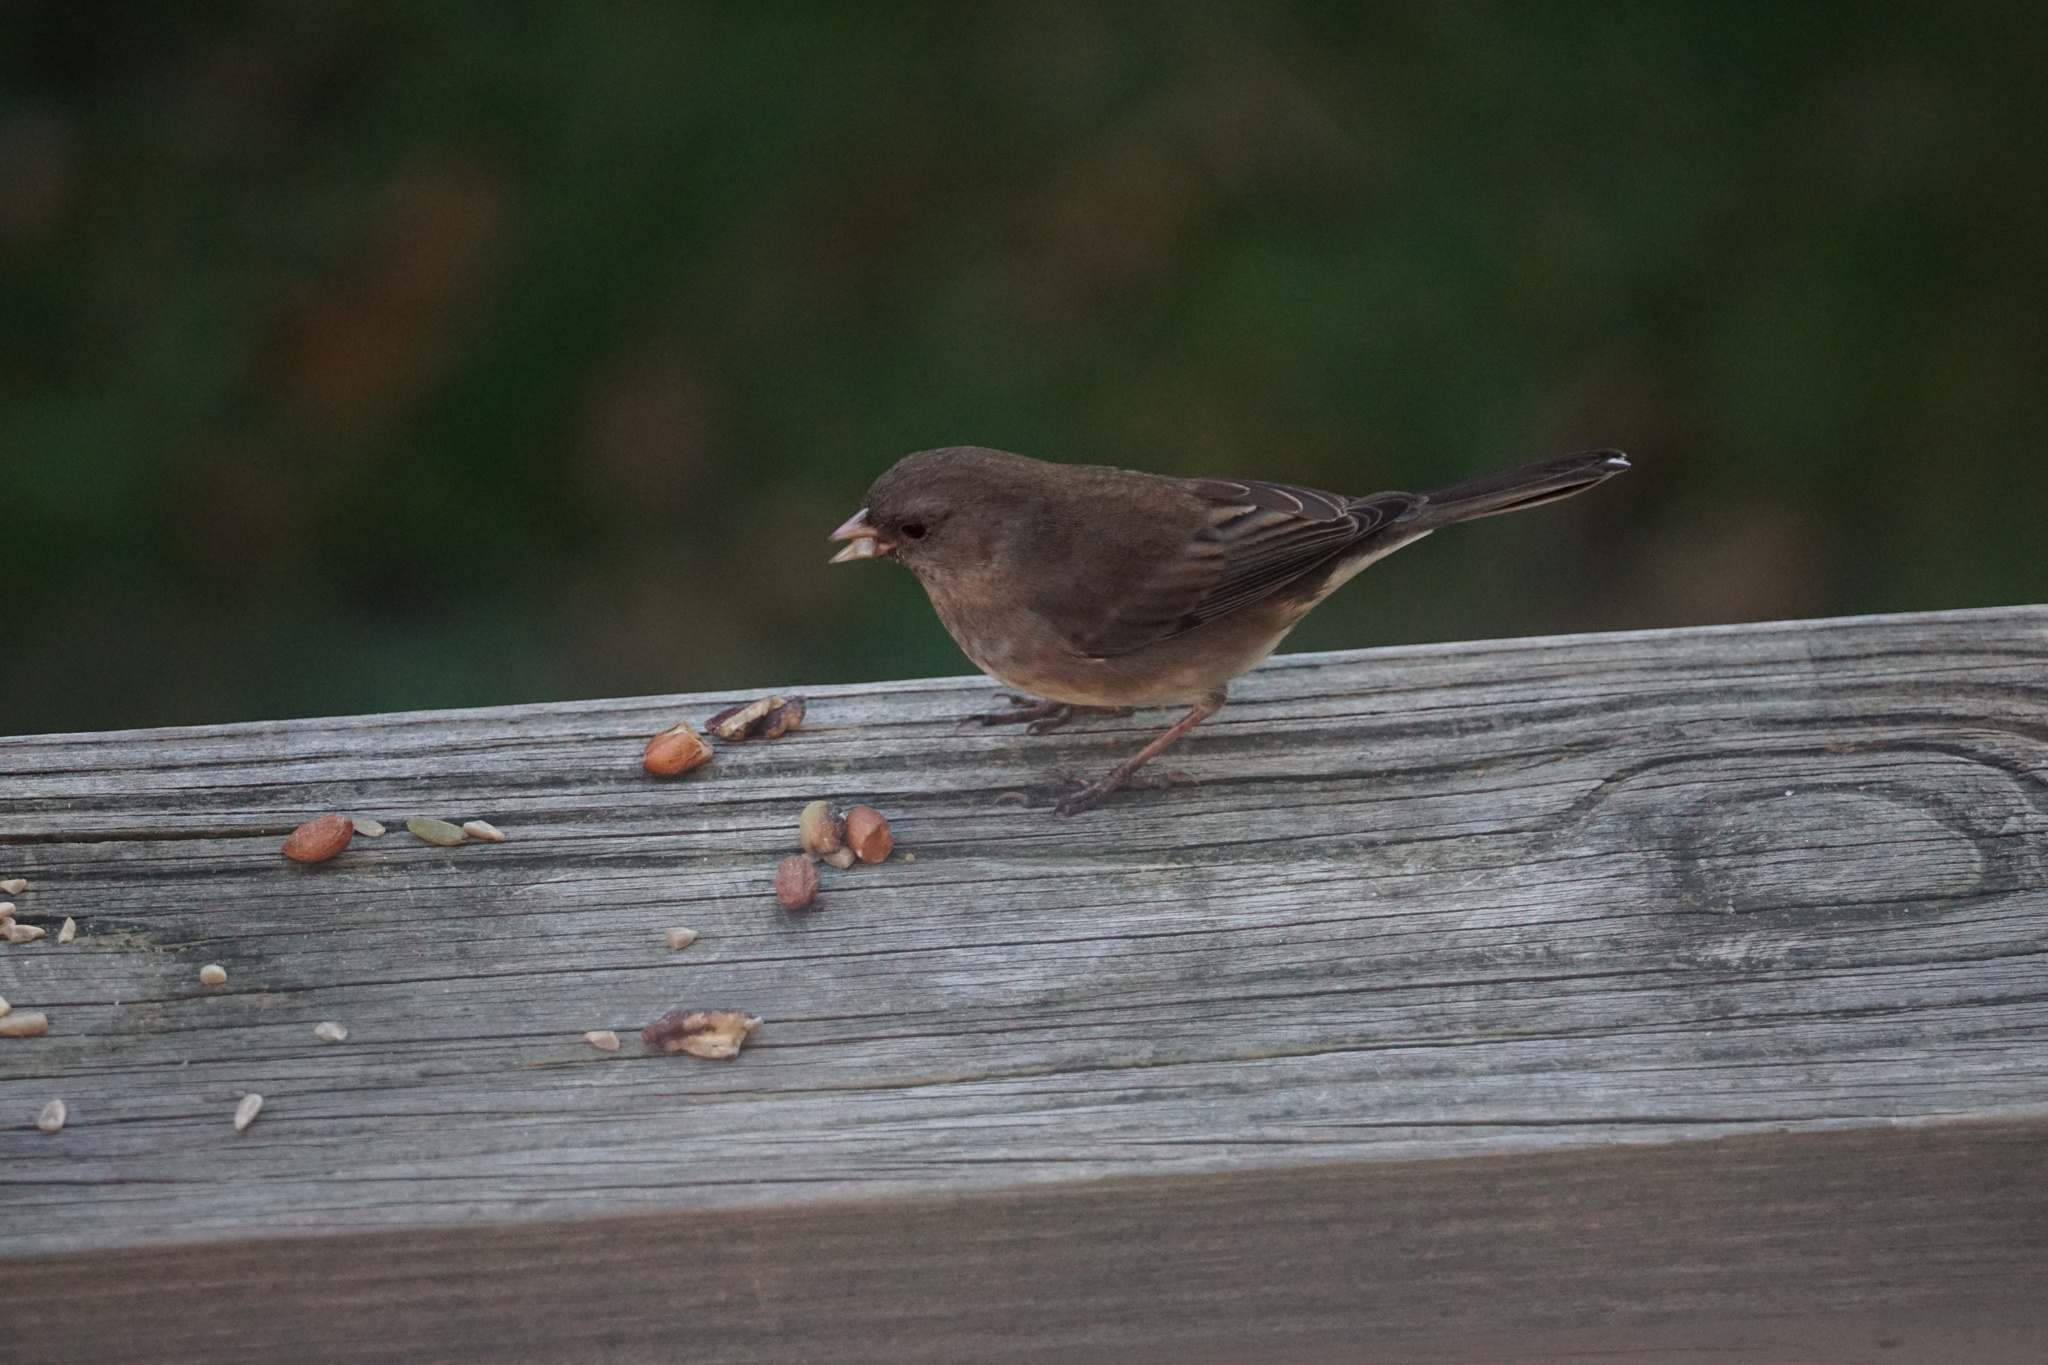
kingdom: Animalia
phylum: Chordata
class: Aves
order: Passeriformes
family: Passerellidae
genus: Junco
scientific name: Junco hyemalis
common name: Dark-eyed junco
